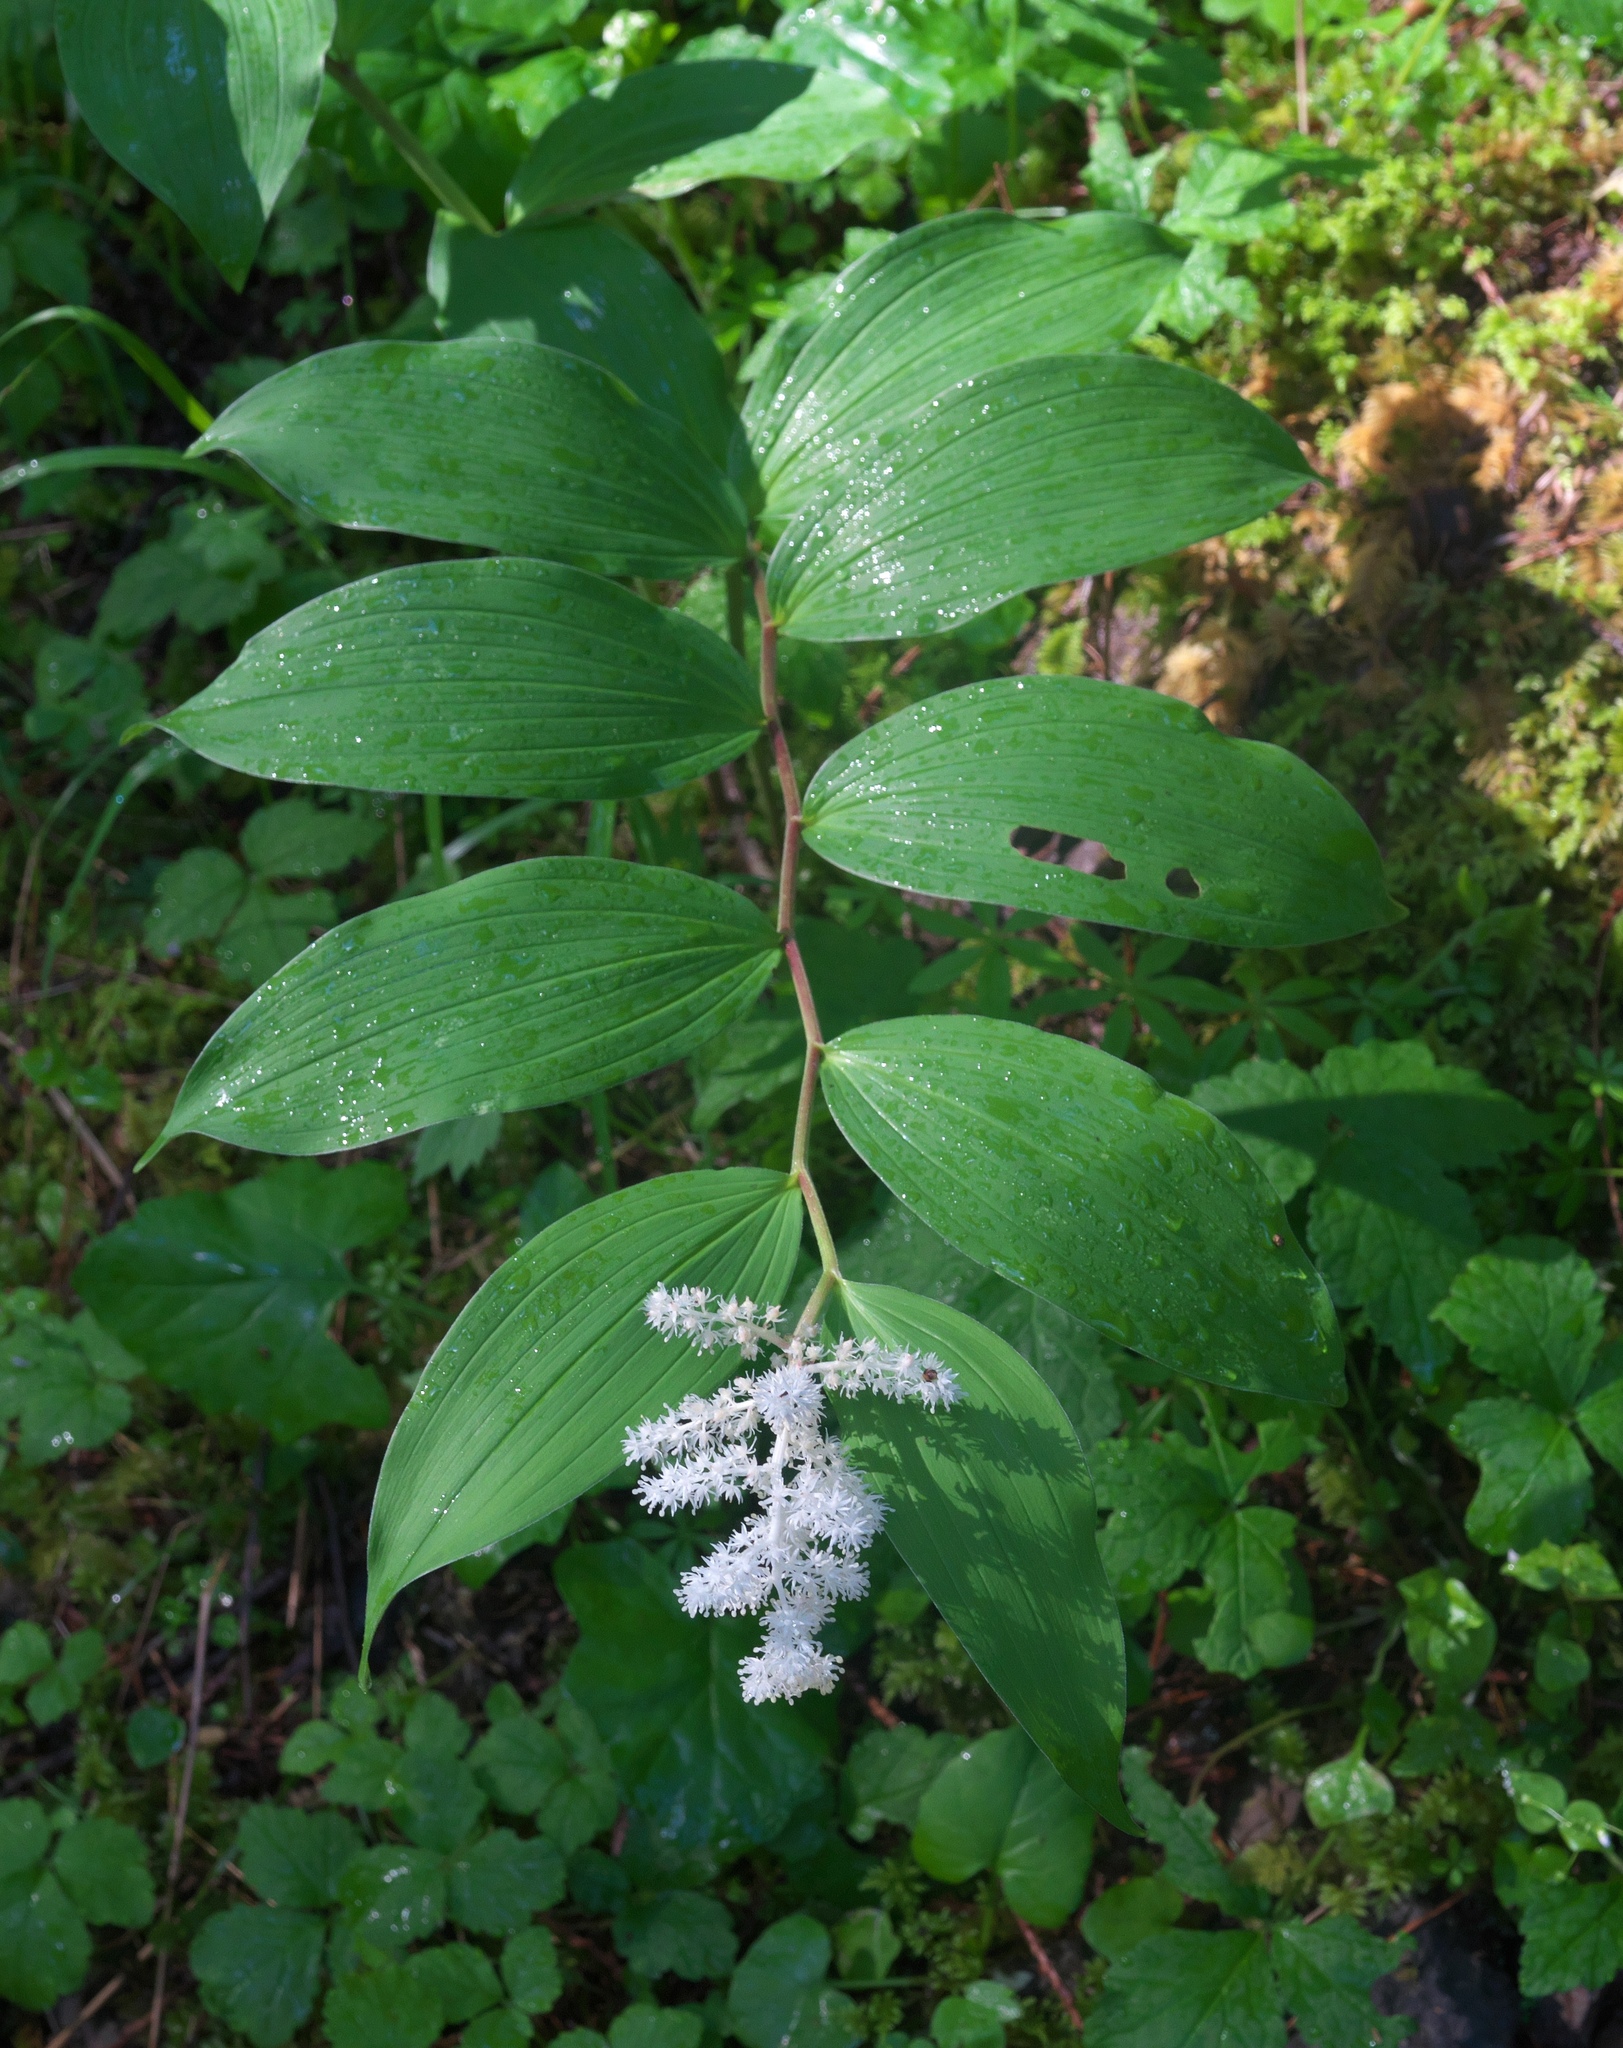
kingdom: Plantae
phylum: Tracheophyta
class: Liliopsida
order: Asparagales
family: Asparagaceae
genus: Maianthemum
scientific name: Maianthemum racemosum
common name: False spikenard
